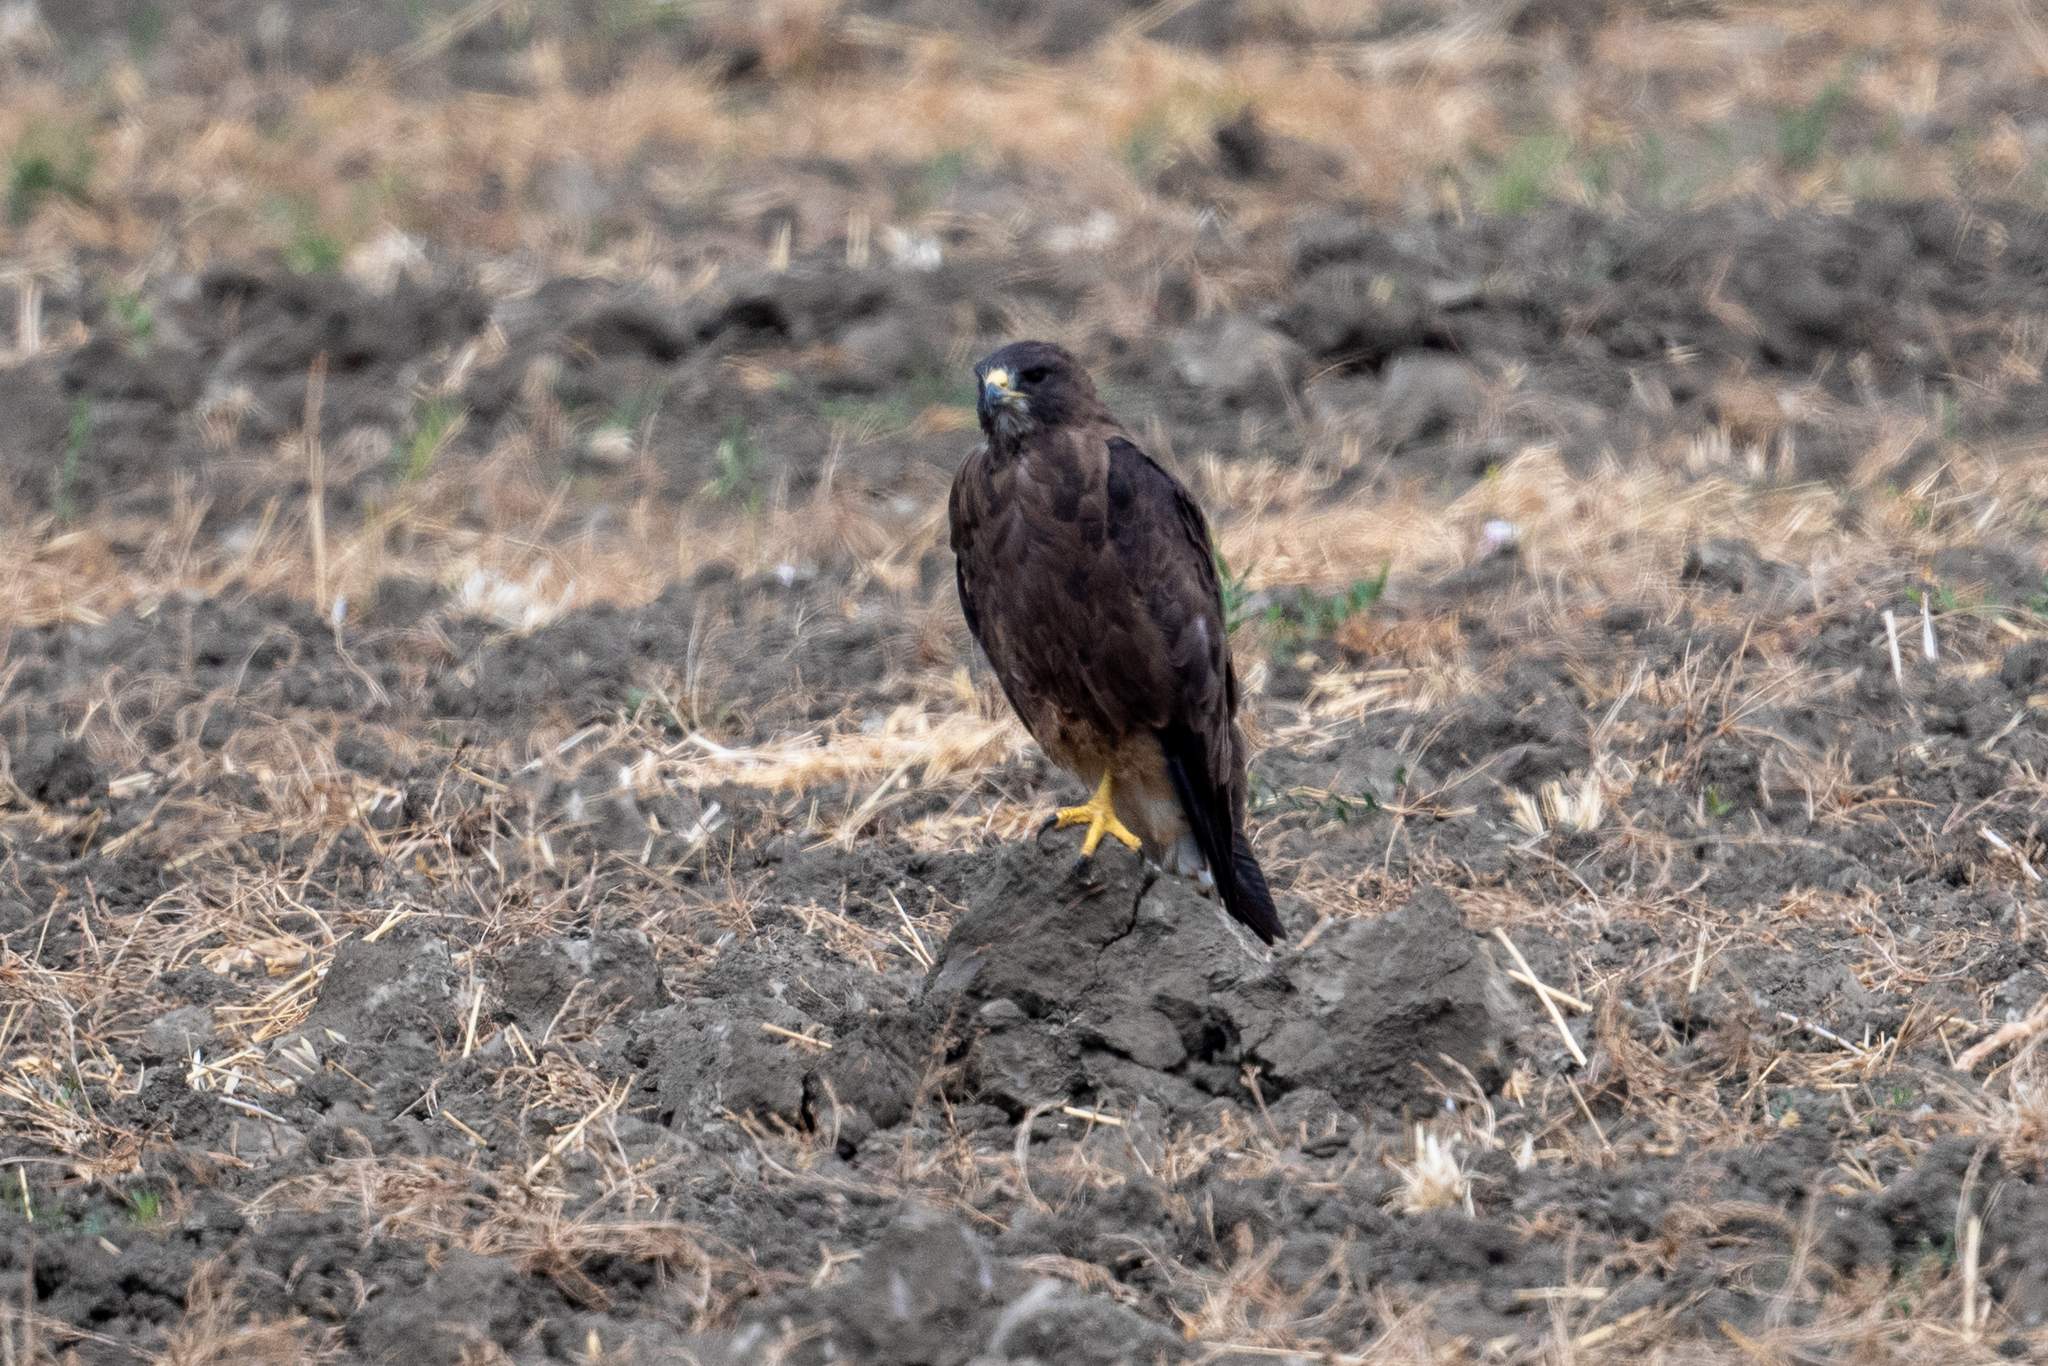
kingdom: Animalia
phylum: Chordata
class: Aves
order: Accipitriformes
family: Accipitridae
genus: Buteo
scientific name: Buteo swainsoni
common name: Swainson's hawk
